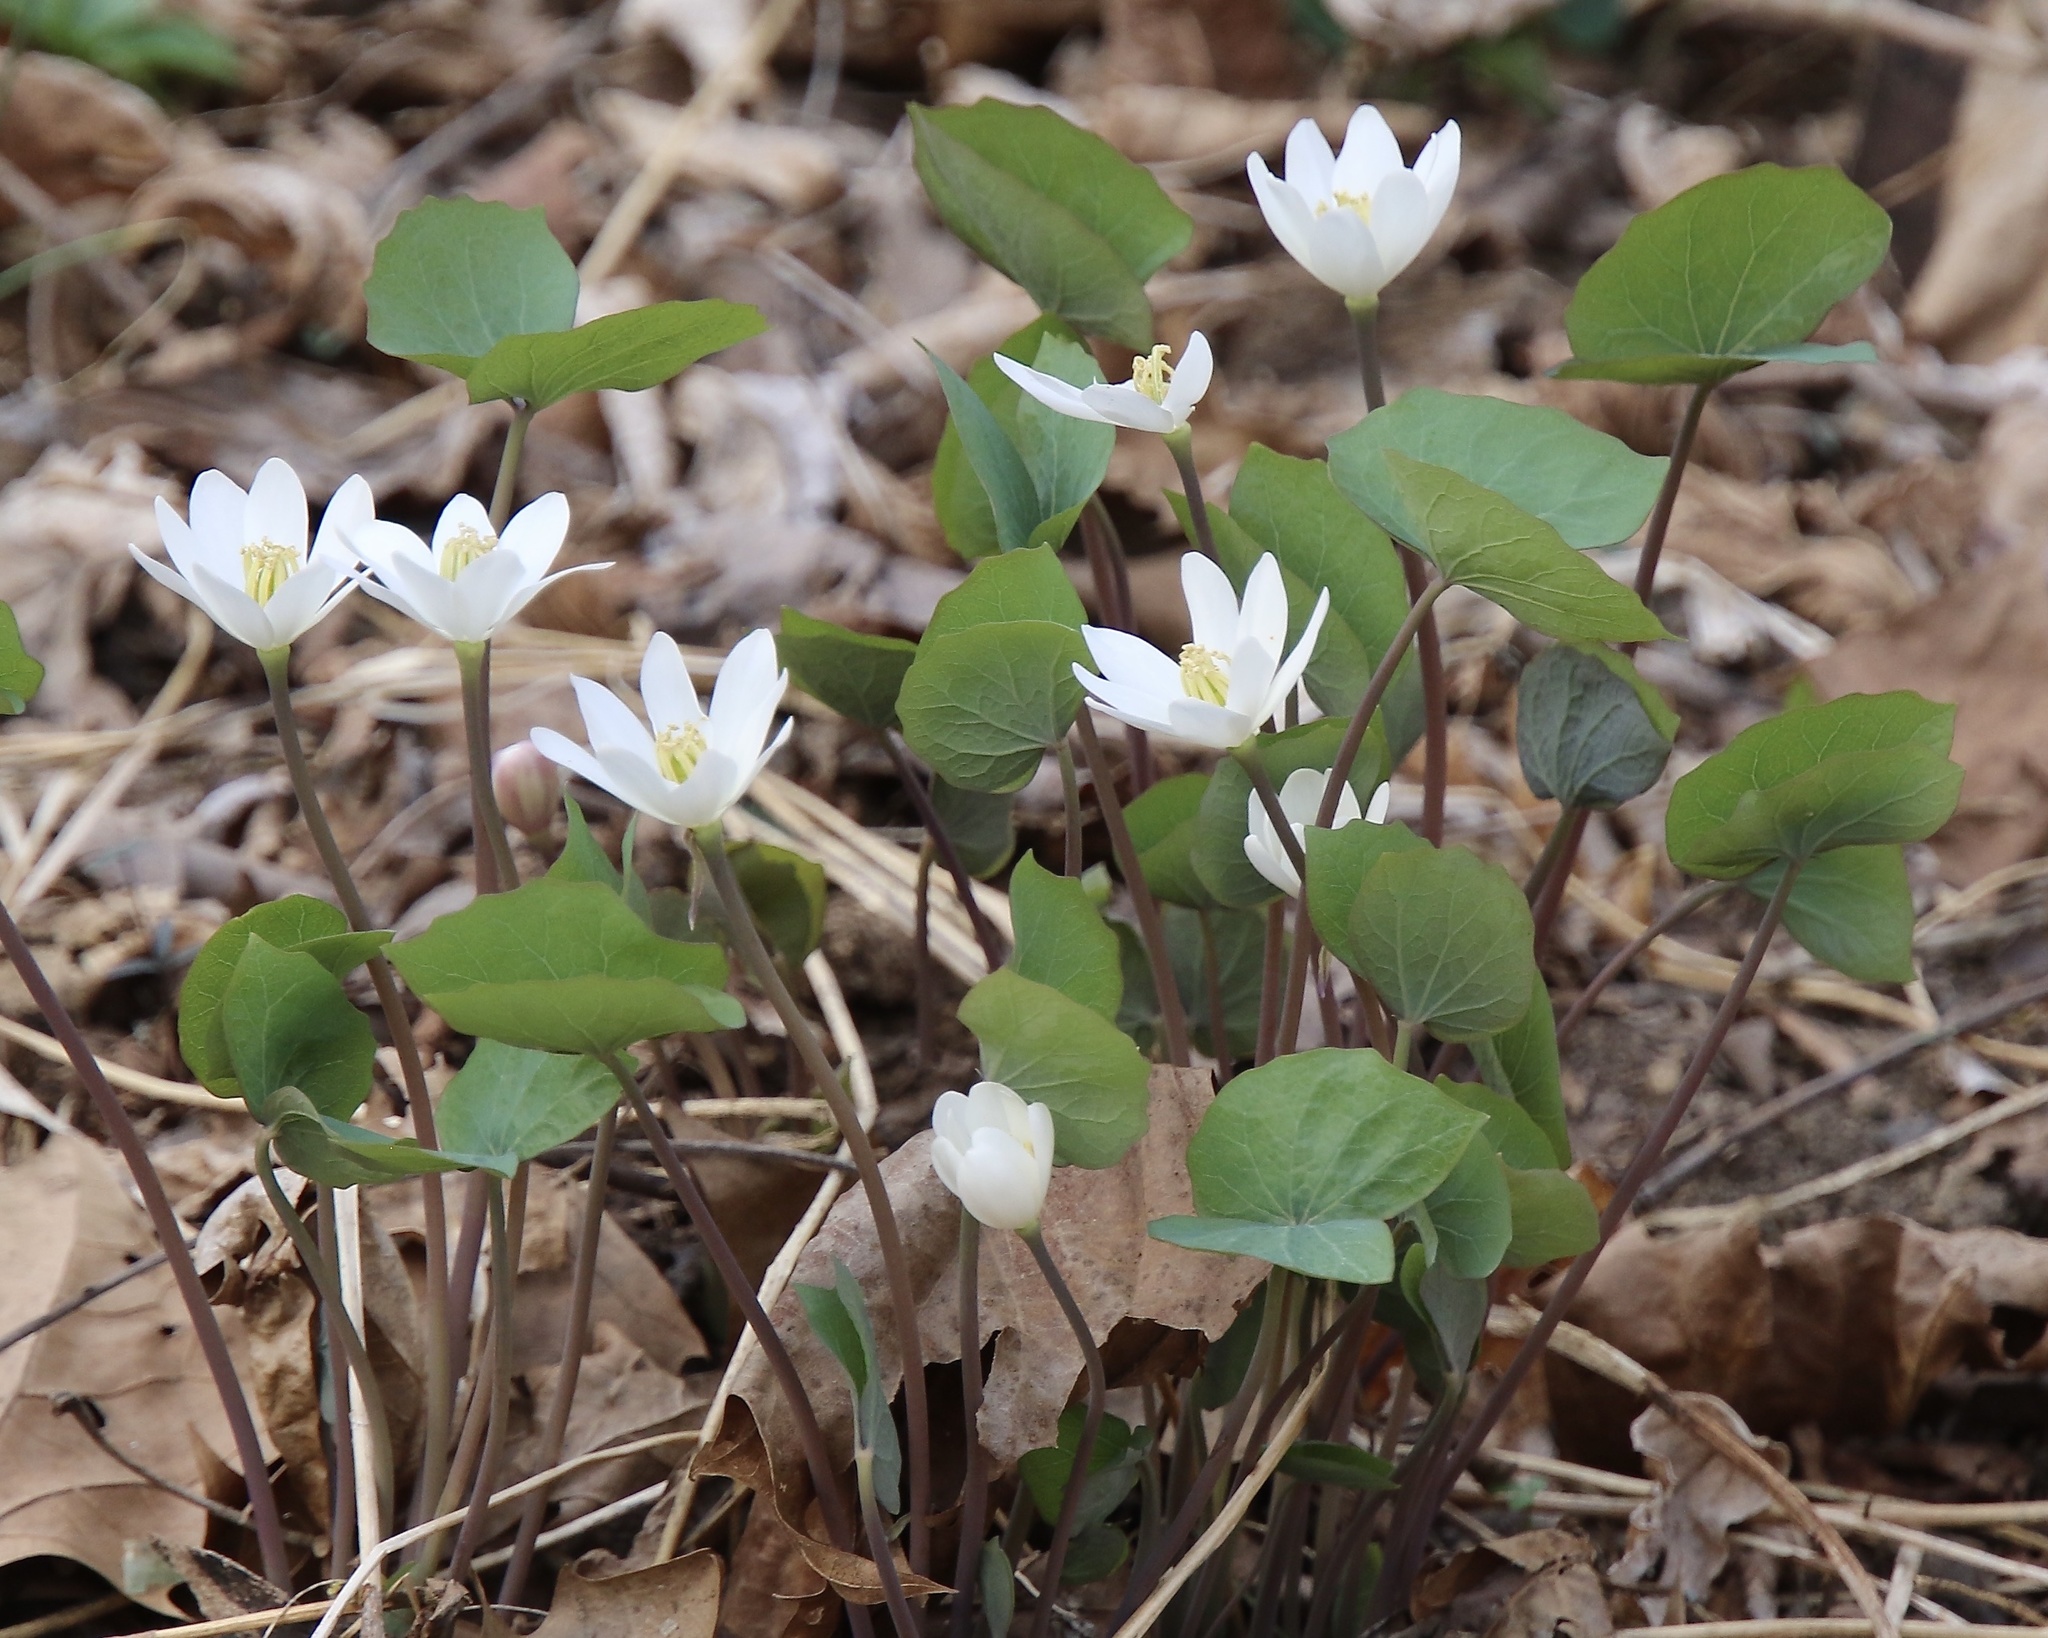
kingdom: Plantae
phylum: Tracheophyta
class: Magnoliopsida
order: Ranunculales
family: Berberidaceae
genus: Jeffersonia
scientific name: Jeffersonia diphylla
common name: Rheumatism-root
